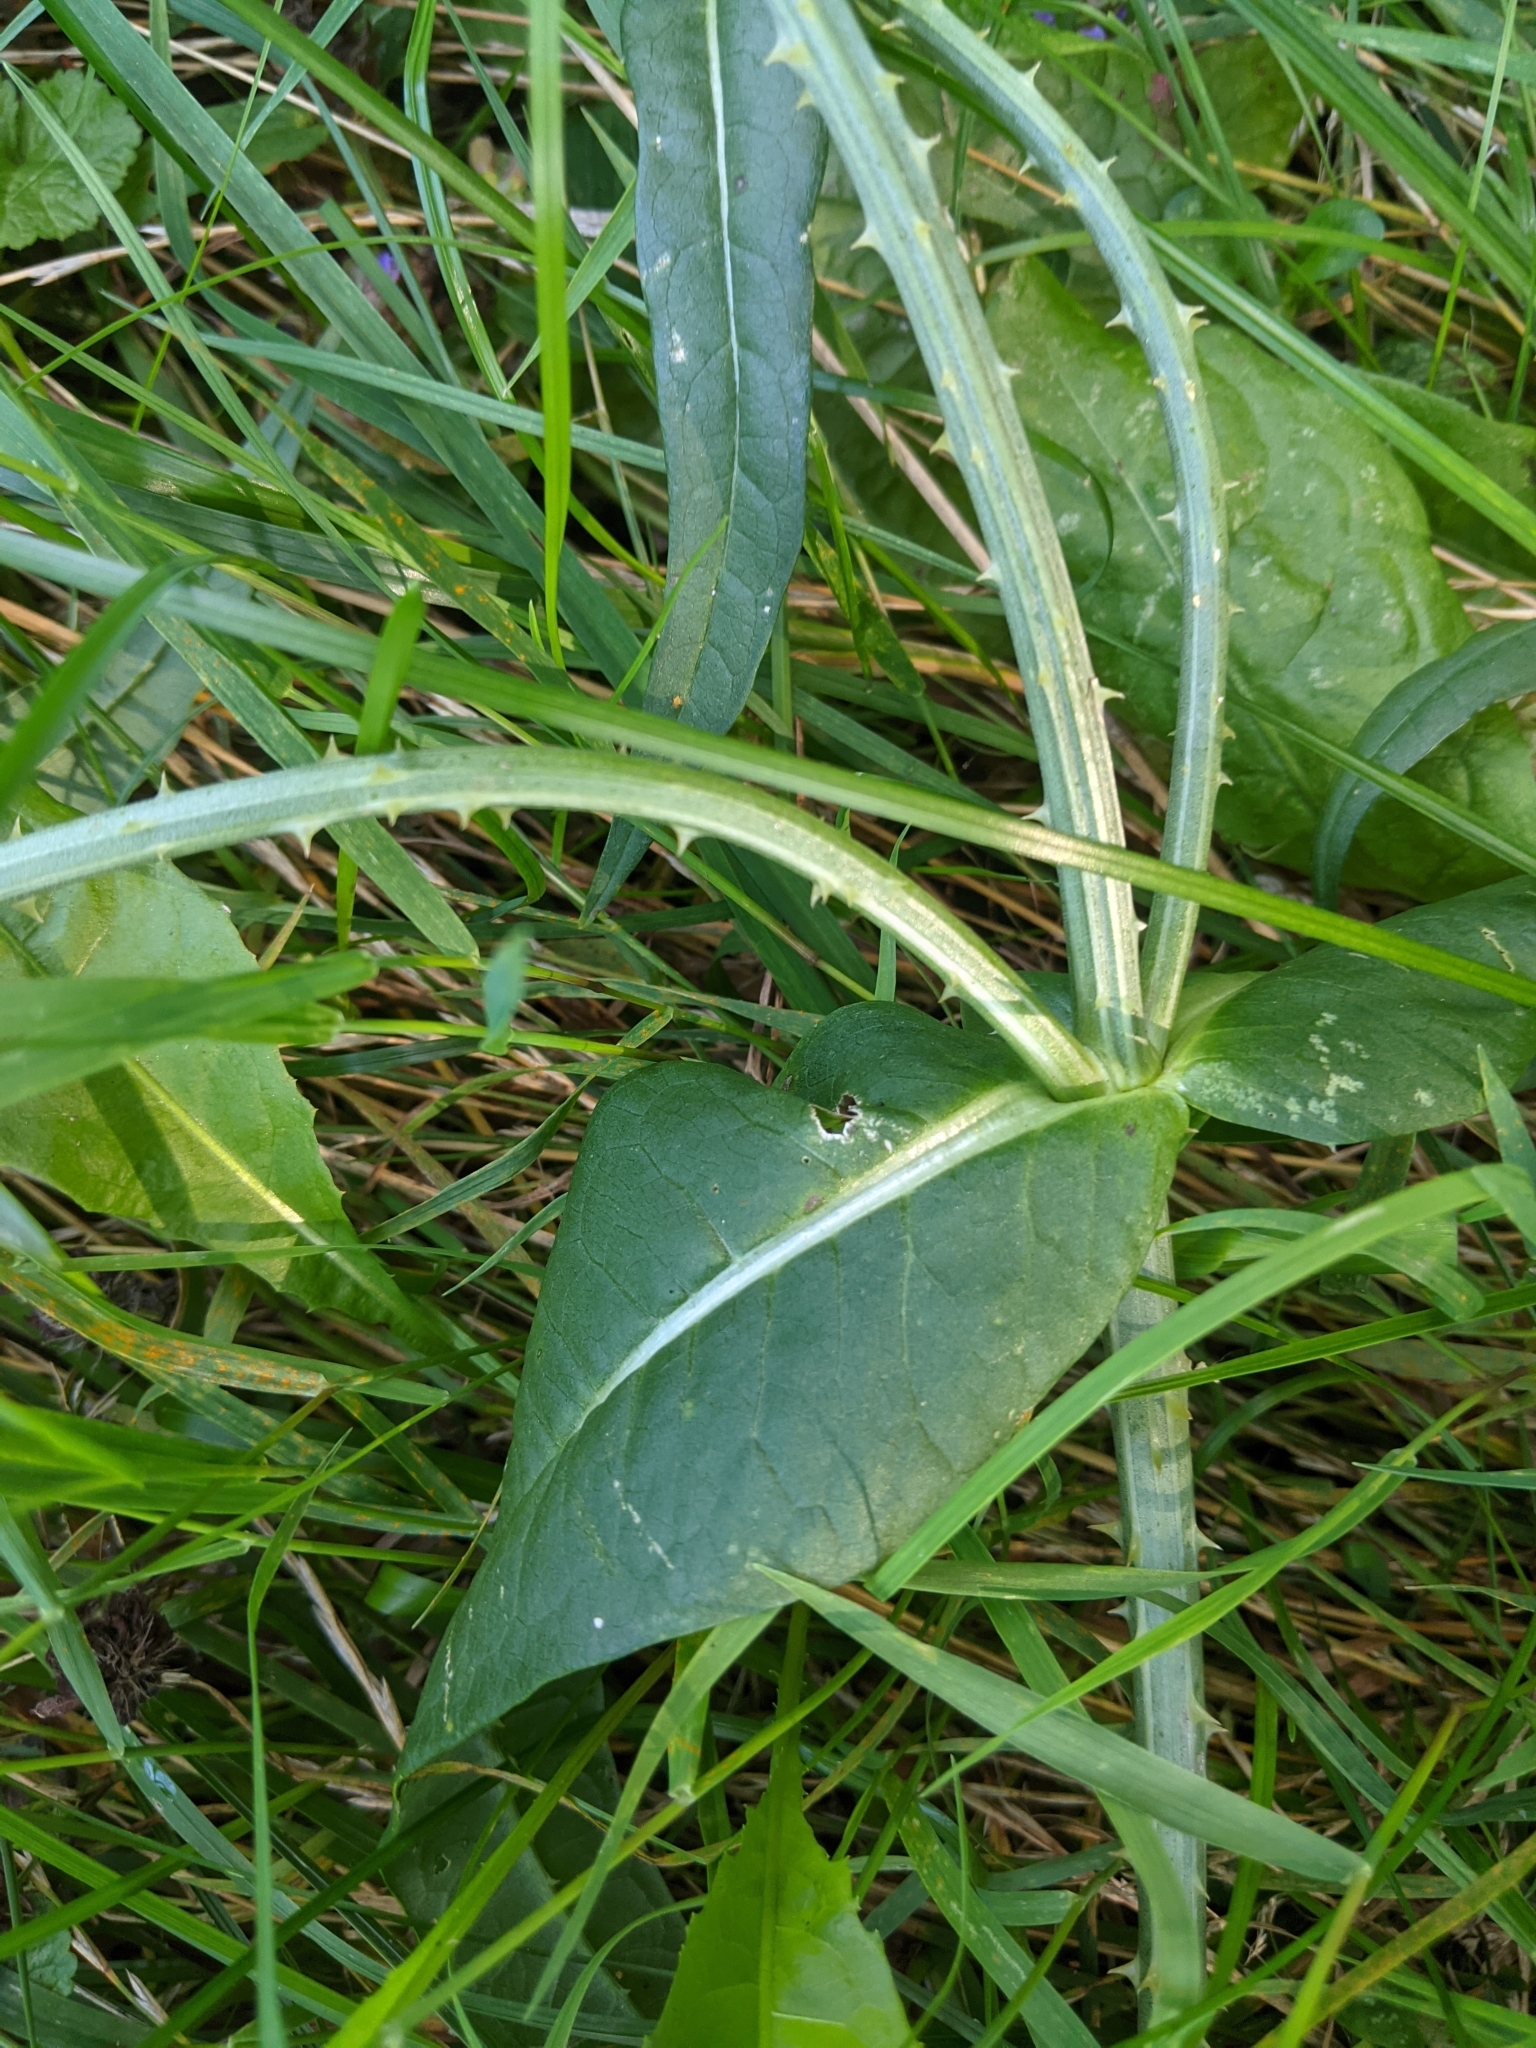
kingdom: Plantae
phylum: Tracheophyta
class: Magnoliopsida
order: Dipsacales
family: Caprifoliaceae
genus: Dipsacus
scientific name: Dipsacus fullonum
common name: Teasel
